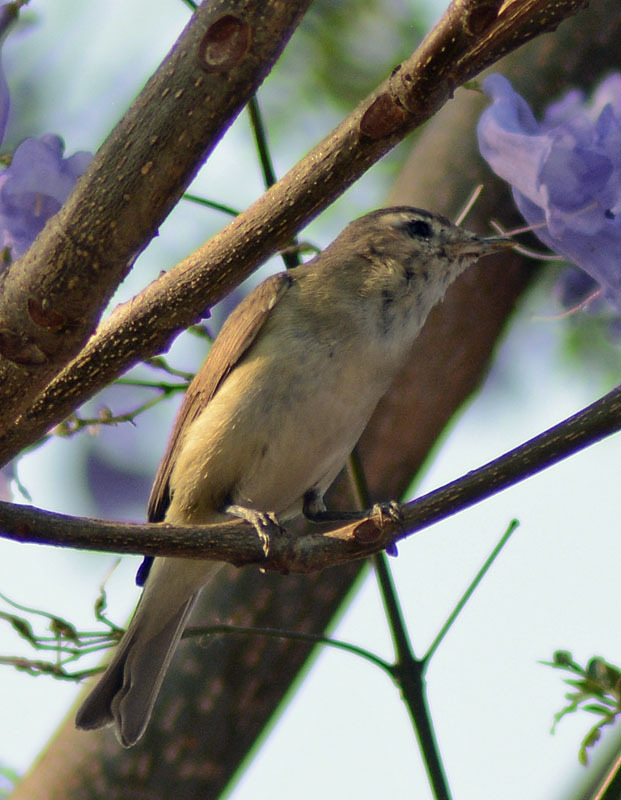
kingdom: Animalia
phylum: Chordata
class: Aves
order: Passeriformes
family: Vireonidae
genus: Vireo
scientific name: Vireo gilvus
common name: Warbling vireo
